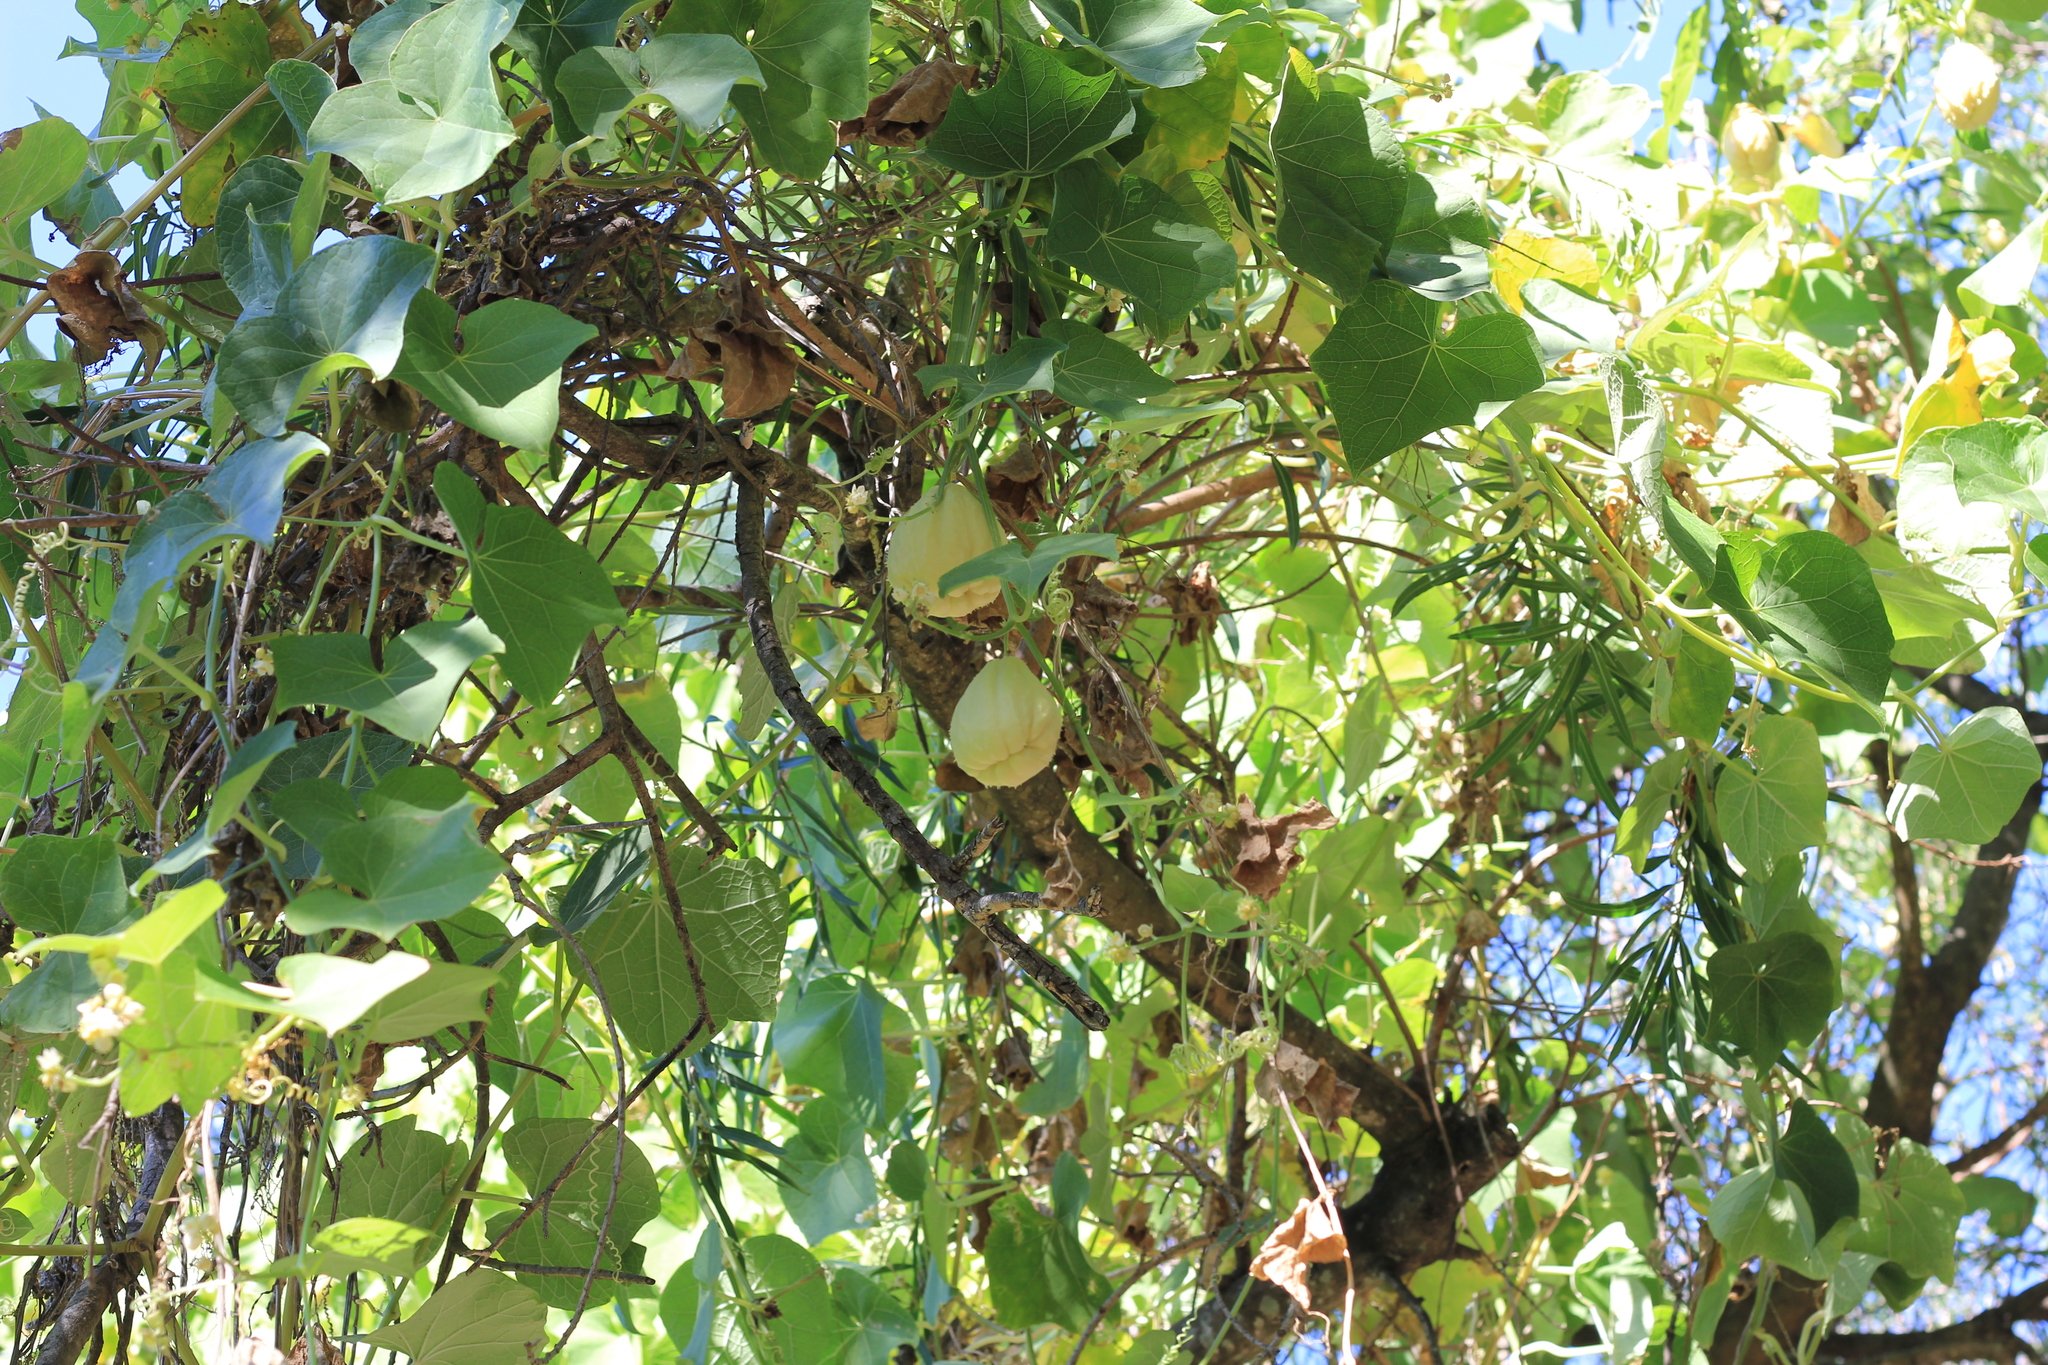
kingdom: Plantae
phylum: Tracheophyta
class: Magnoliopsida
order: Cucurbitales
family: Cucurbitaceae
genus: Sechium
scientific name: Sechium edule
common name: Chayote
